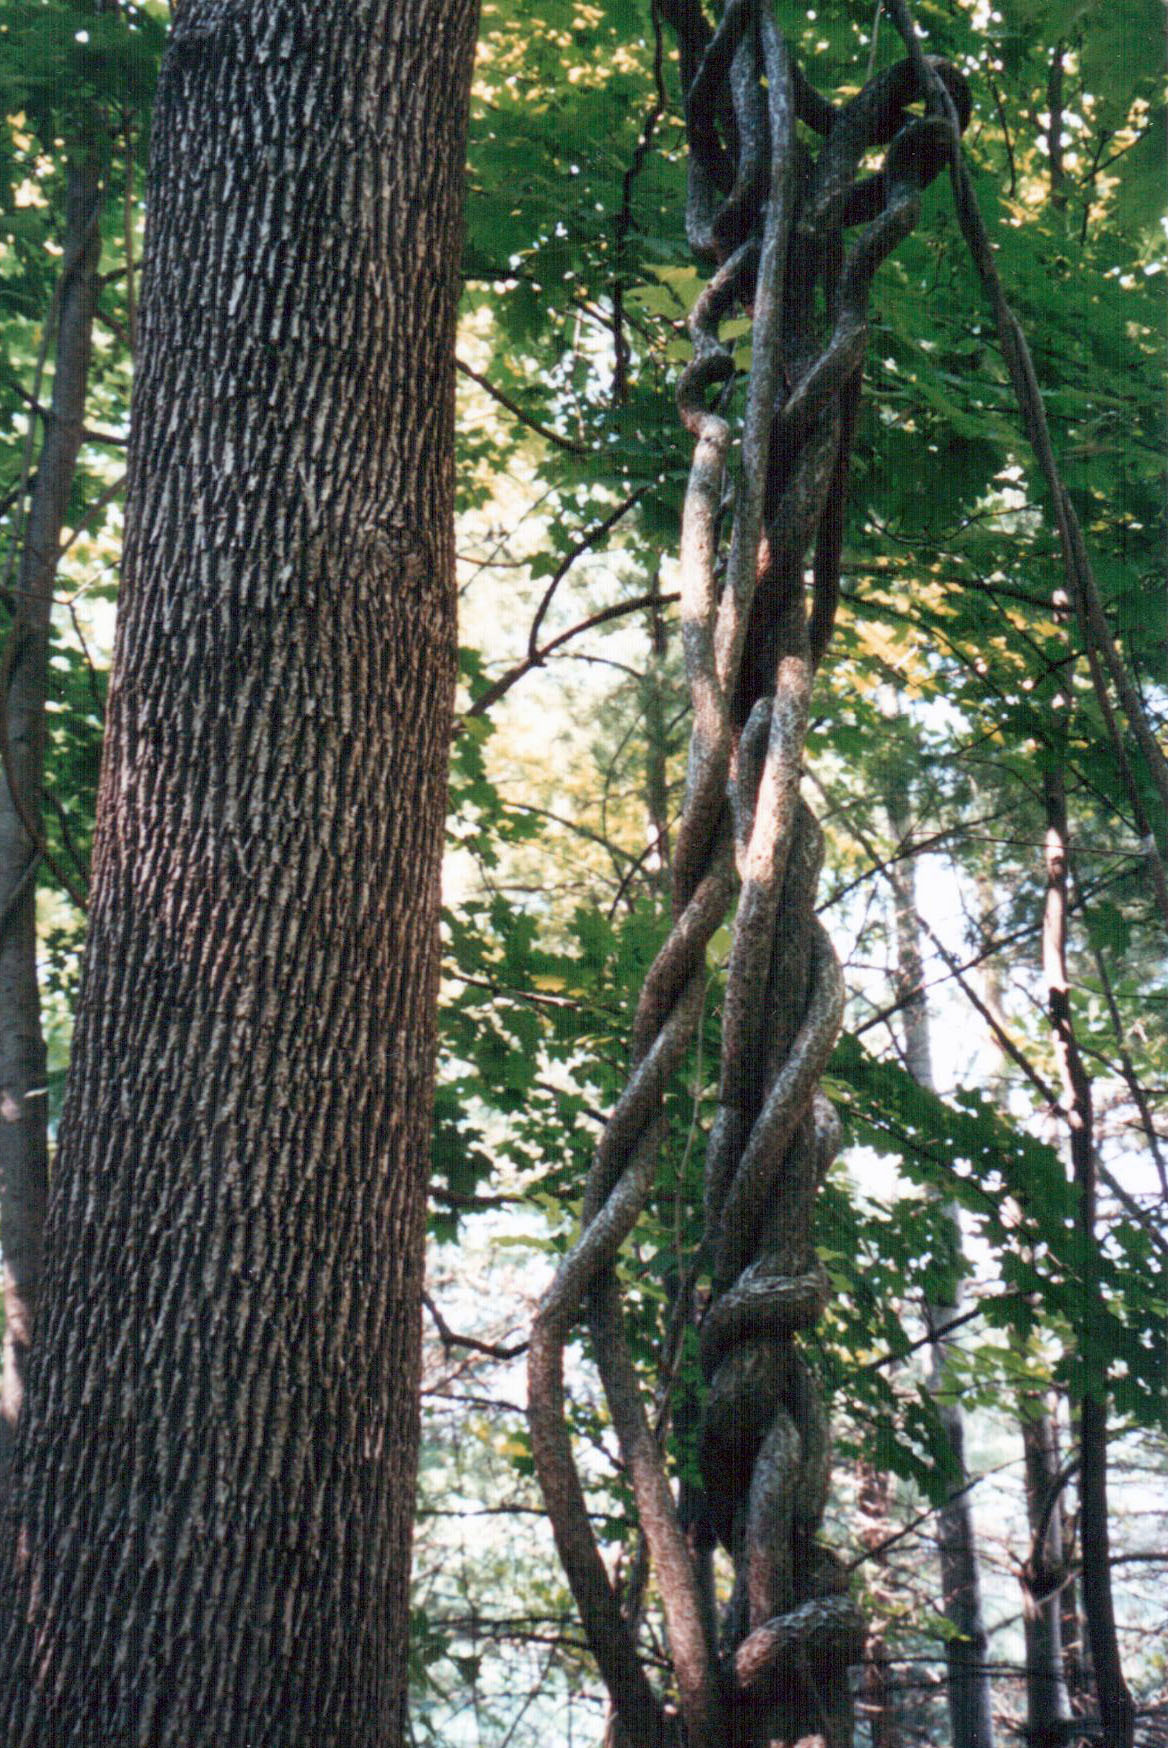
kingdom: Plantae
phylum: Tracheophyta
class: Magnoliopsida
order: Celastrales
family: Celastraceae
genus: Celastrus
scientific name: Celastrus orbiculatus
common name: Oriental bittersweet
